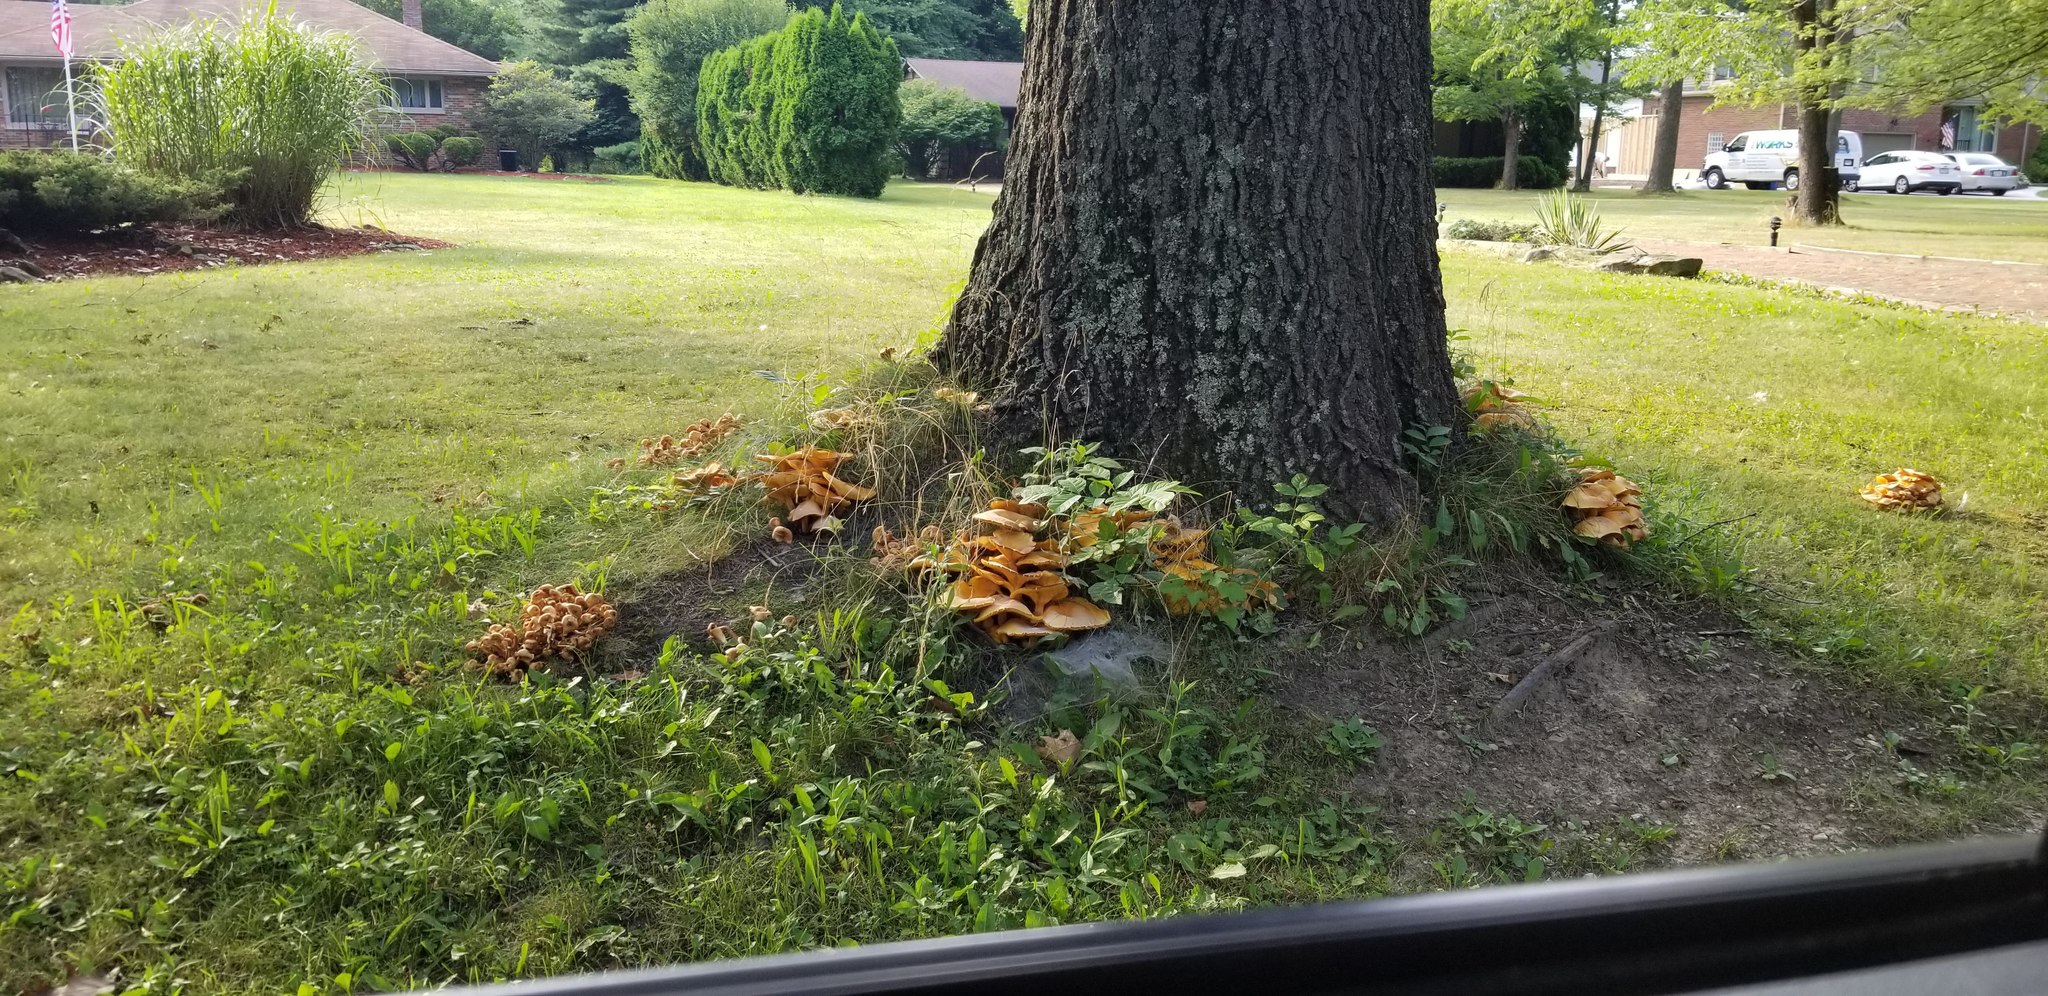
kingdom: Fungi
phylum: Basidiomycota
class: Agaricomycetes
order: Agaricales
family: Omphalotaceae
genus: Omphalotus
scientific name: Omphalotus illudens
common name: Jack o lantern
